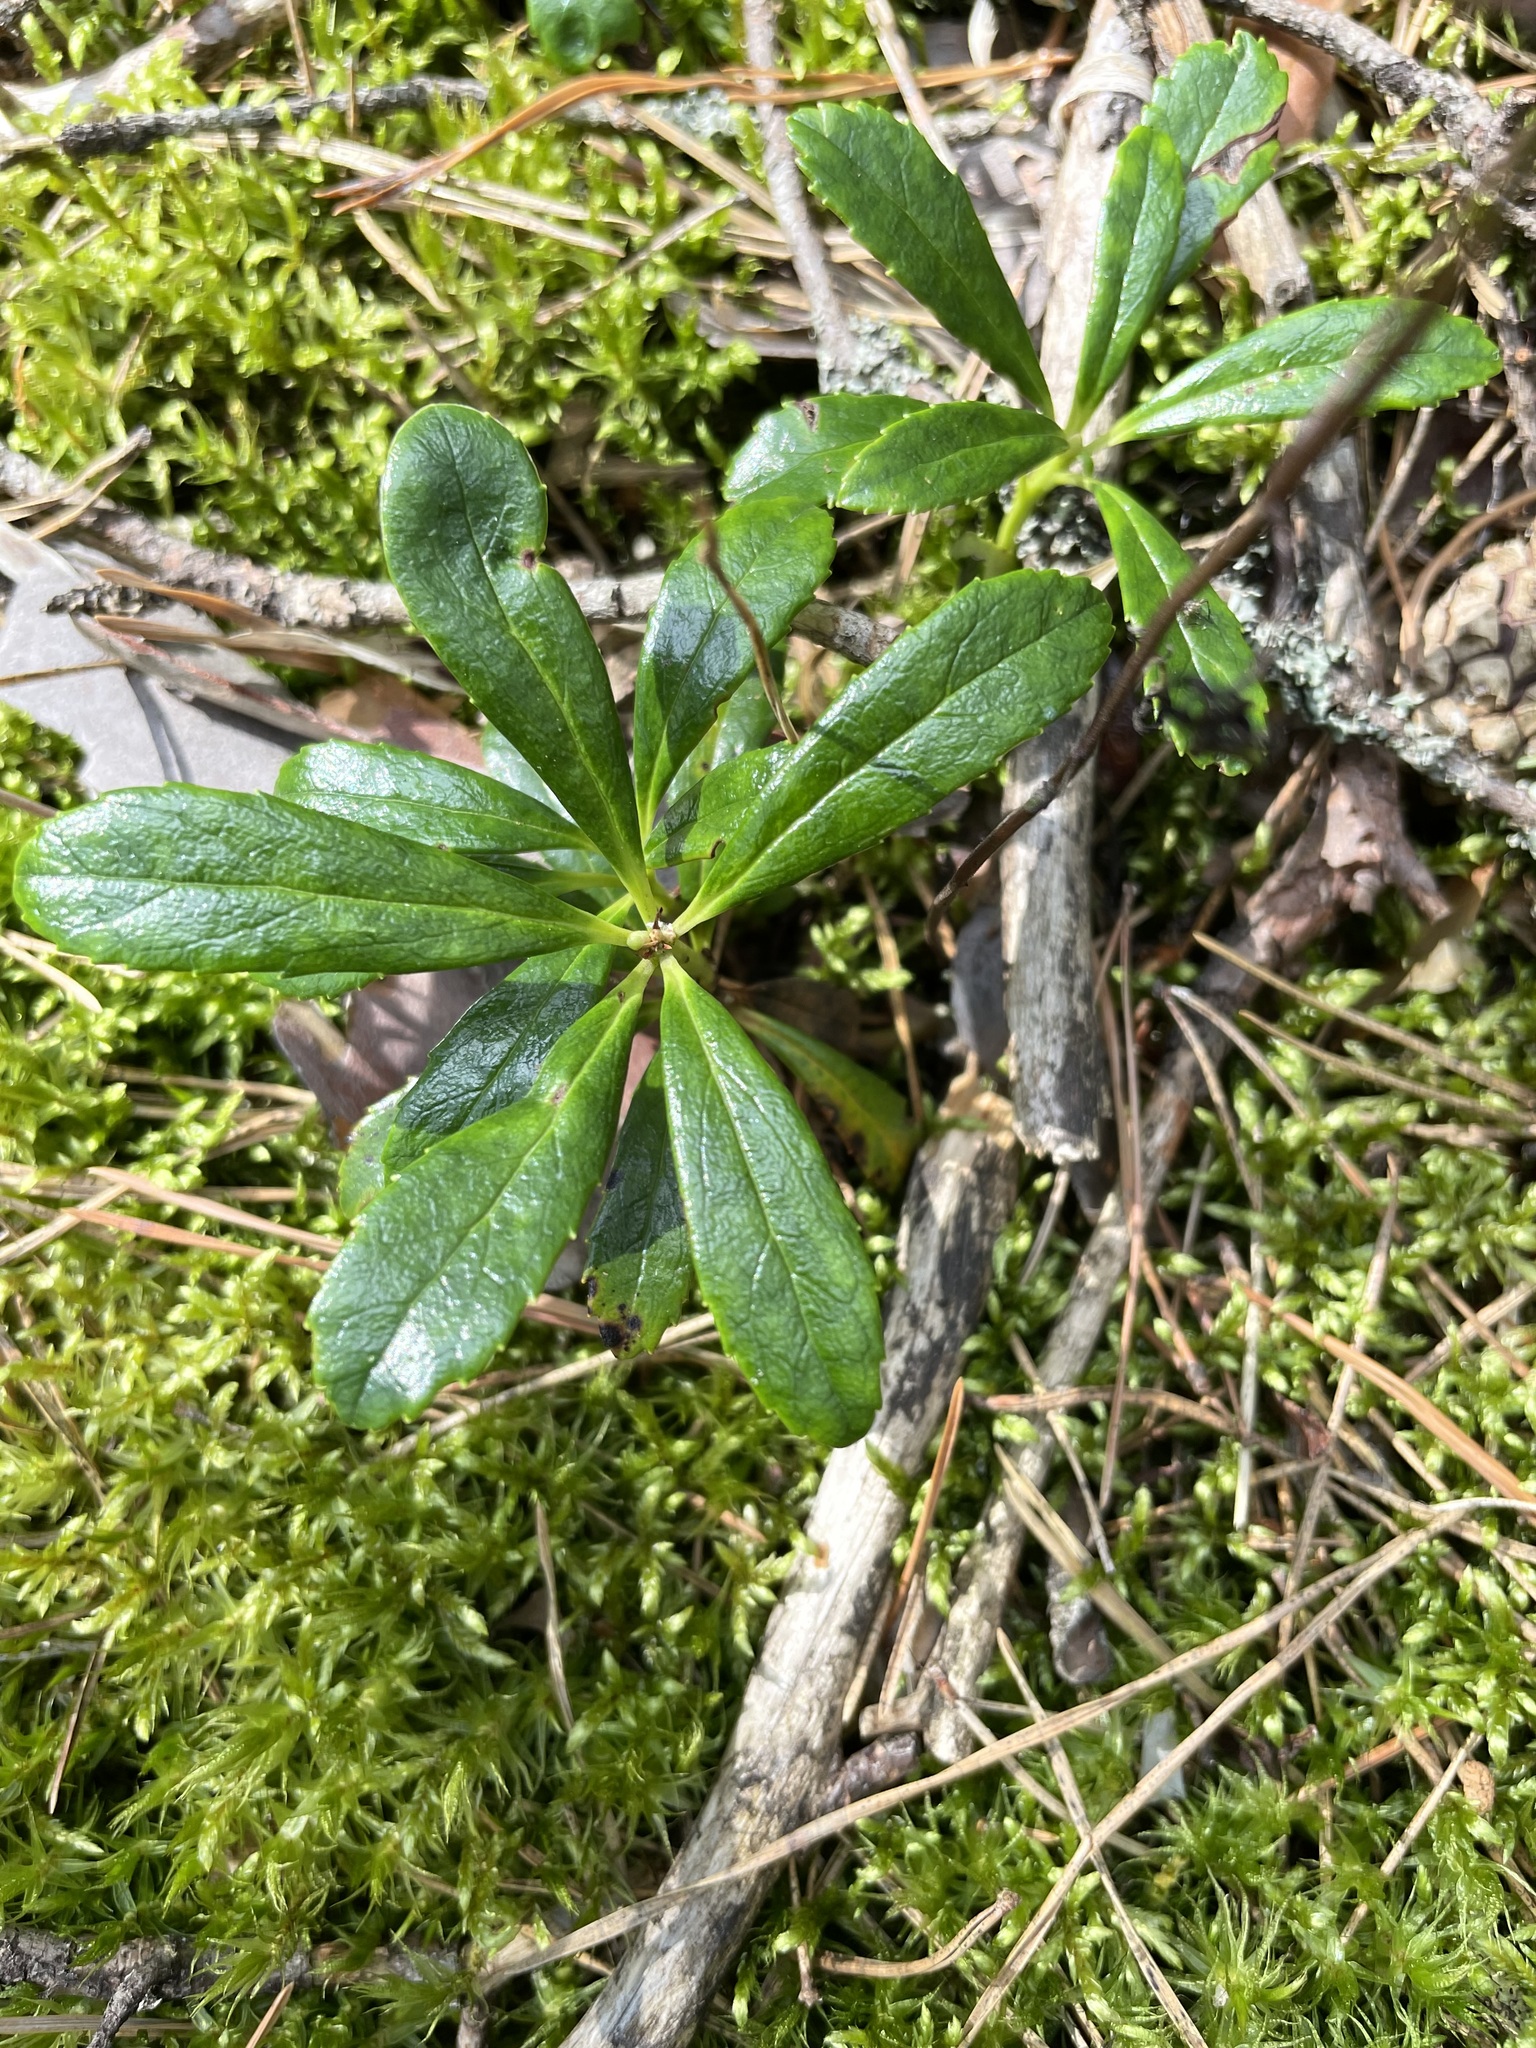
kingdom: Plantae
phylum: Tracheophyta
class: Magnoliopsida
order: Ericales
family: Ericaceae
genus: Chimaphila
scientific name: Chimaphila umbellata
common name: Pipsissewa
